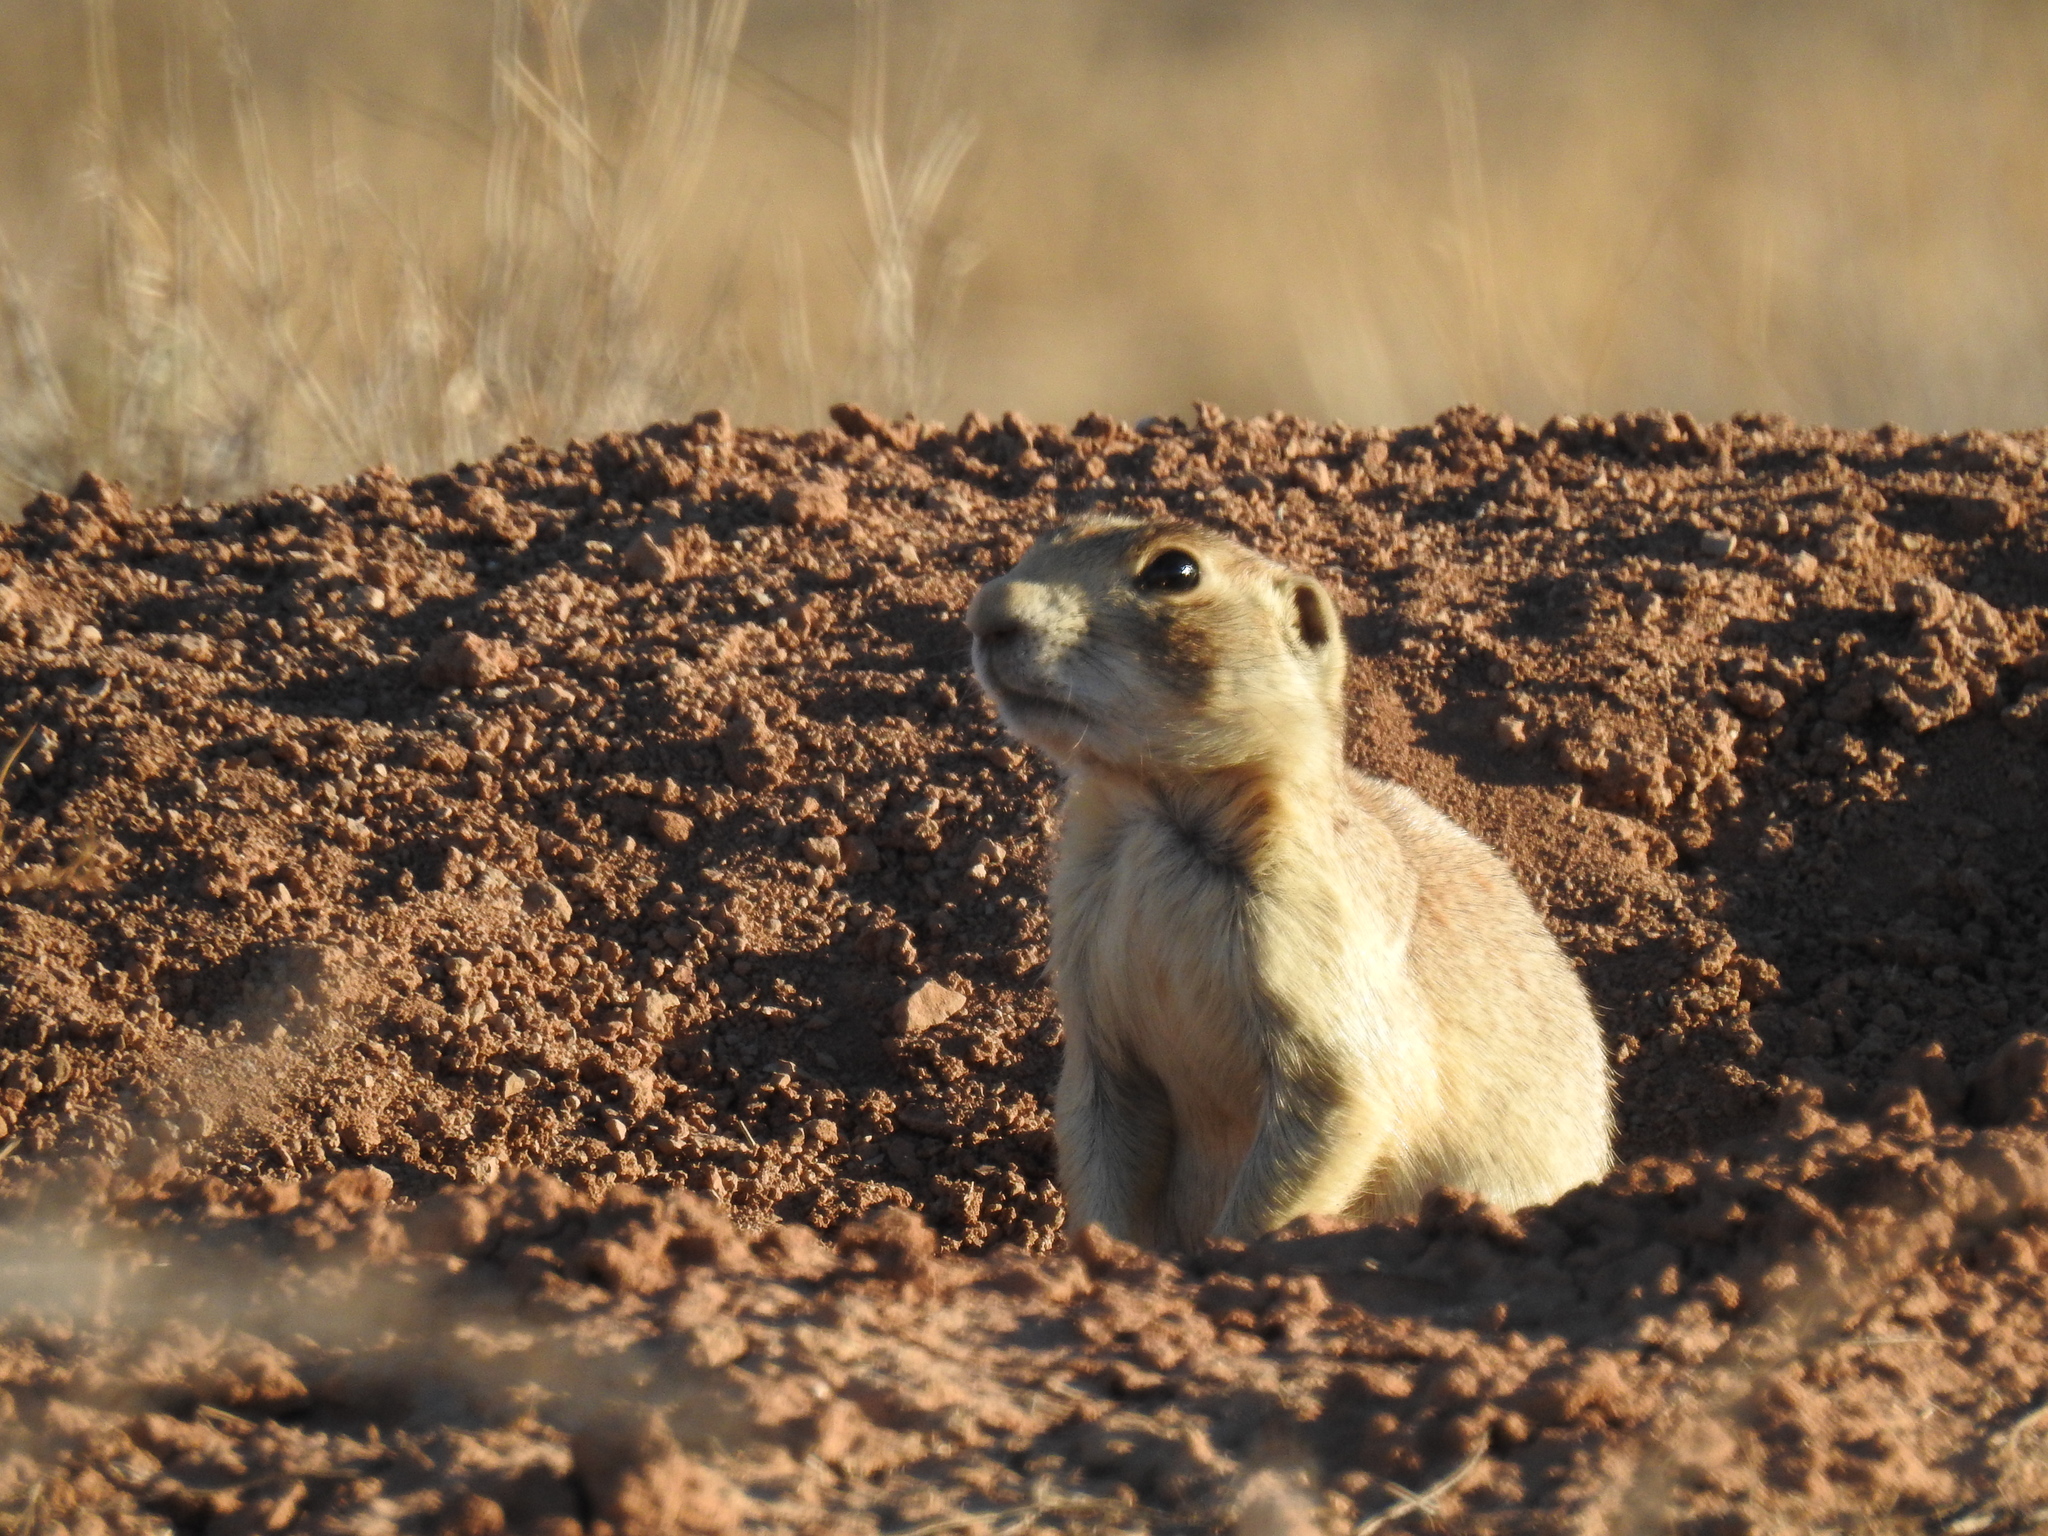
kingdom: Animalia
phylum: Chordata
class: Mammalia
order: Rodentia
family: Sciuridae
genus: Cynomys
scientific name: Cynomys leucurus
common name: White-tailed prairie dog
